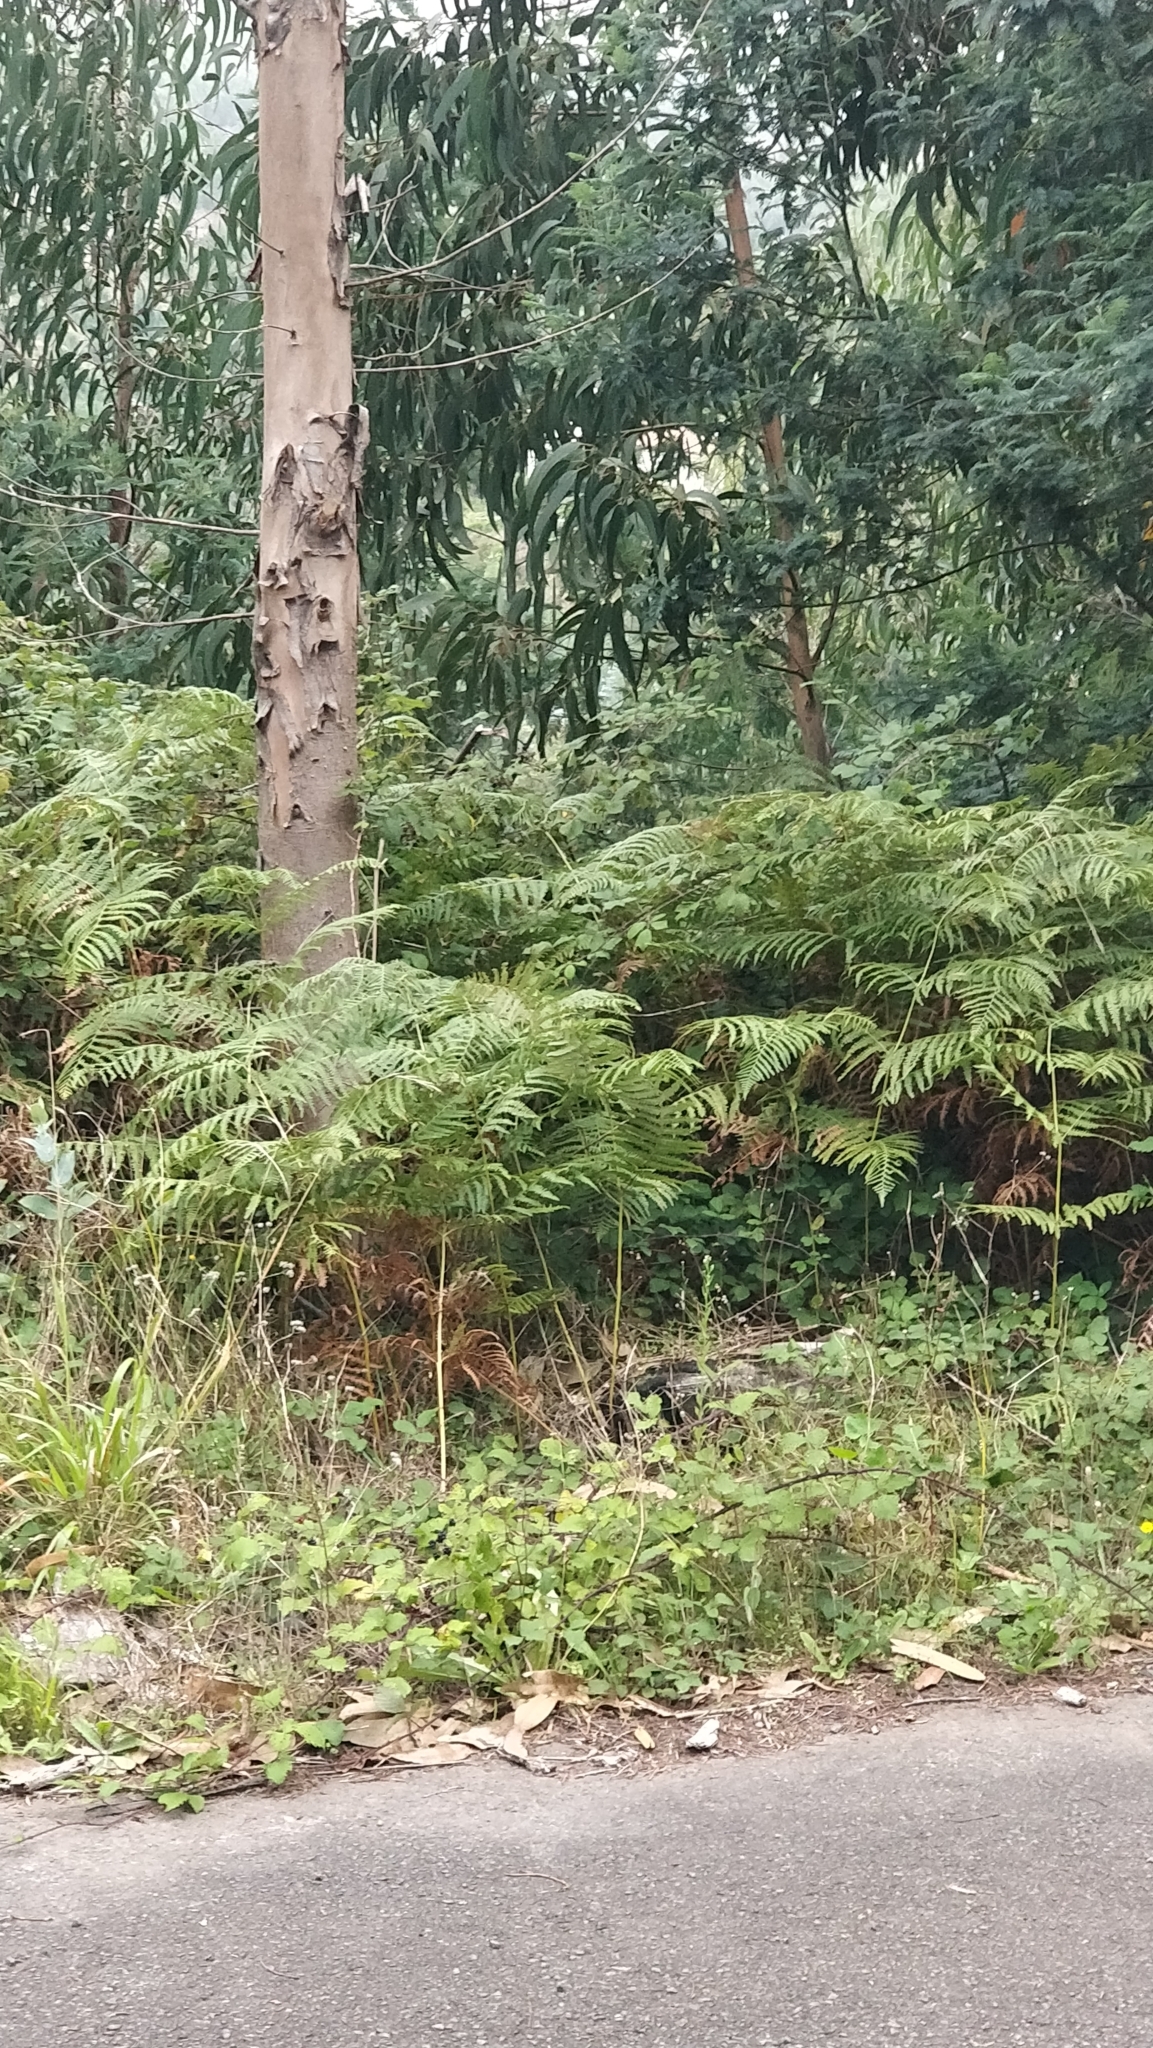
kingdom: Plantae
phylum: Tracheophyta
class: Polypodiopsida
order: Polypodiales
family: Dennstaedtiaceae
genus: Pteridium
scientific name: Pteridium aquilinum
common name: Bracken
